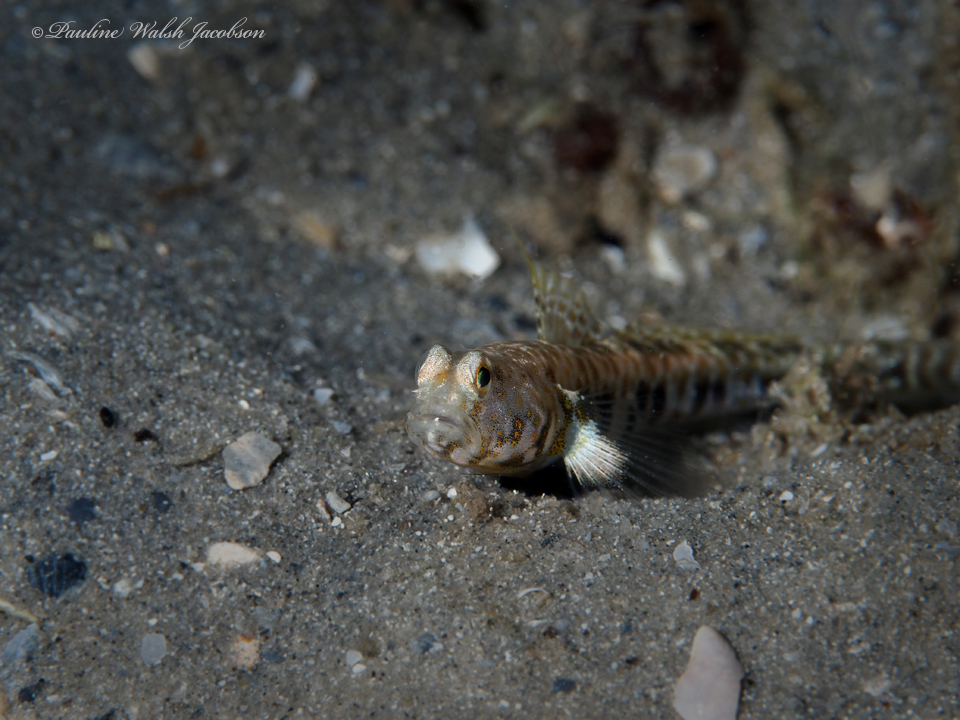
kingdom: Animalia
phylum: Chordata
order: Perciformes
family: Gobiidae
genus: Nes
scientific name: Nes longus
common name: Orangespotted goby
